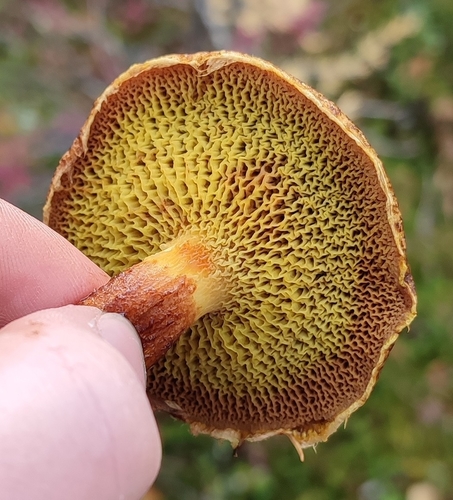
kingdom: Fungi
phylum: Basidiomycota
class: Agaricomycetes
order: Boletales
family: Suillaceae
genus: Suillus
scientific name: Suillus cavipes
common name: Hollow bolete
